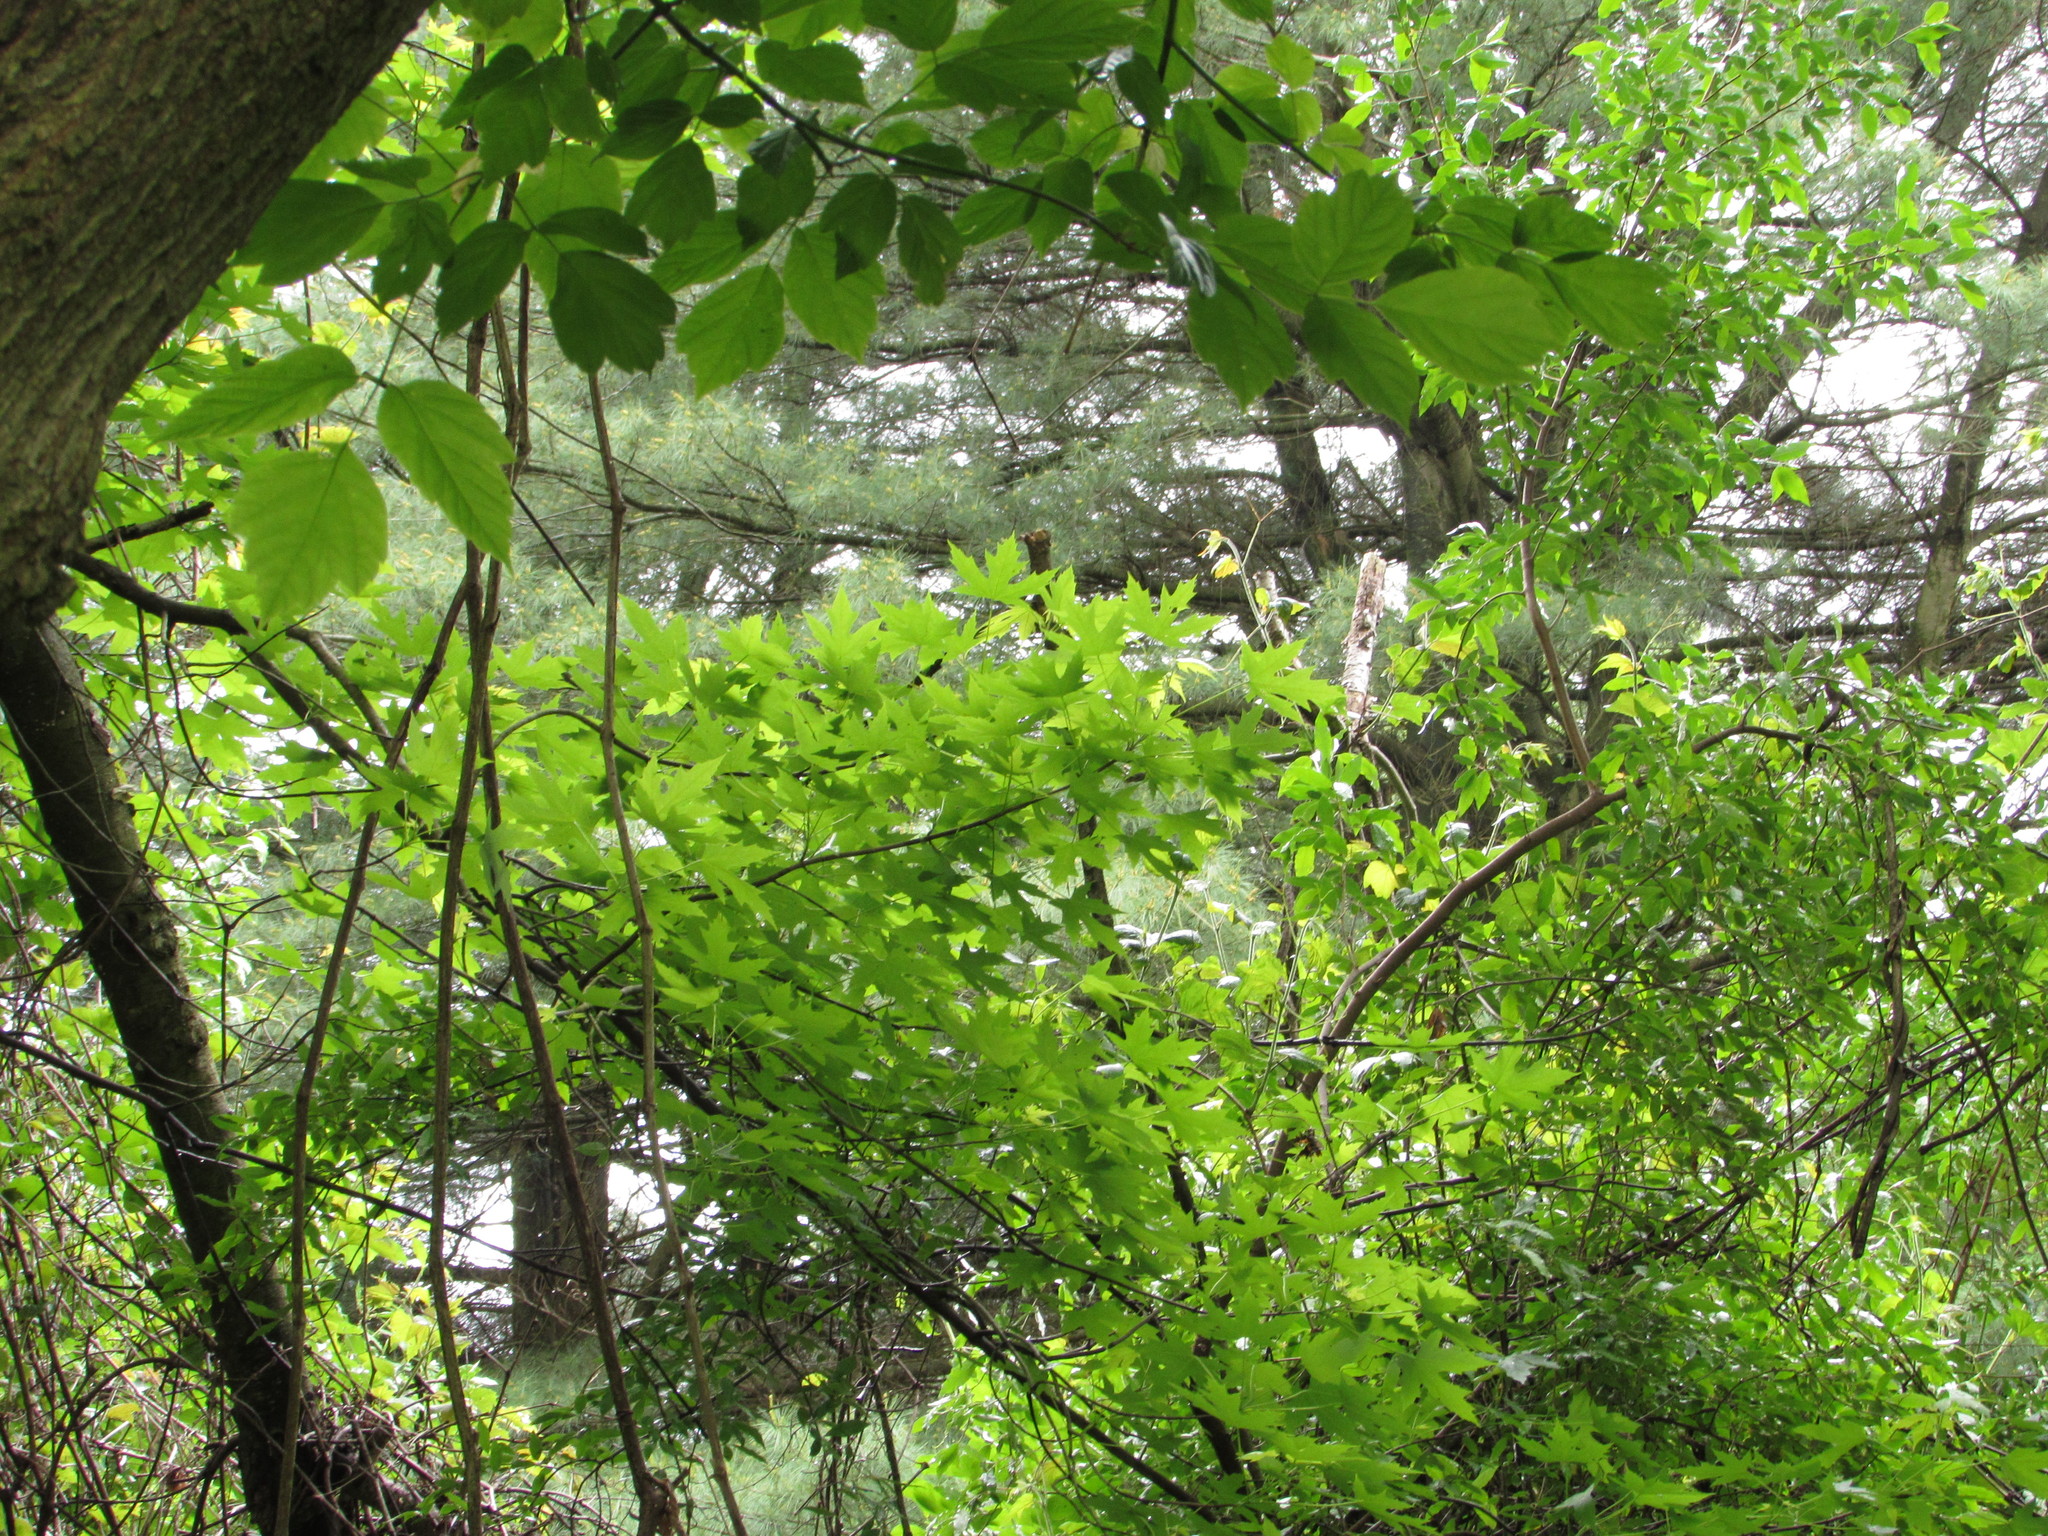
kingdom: Plantae
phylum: Tracheophyta
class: Magnoliopsida
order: Sapindales
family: Sapindaceae
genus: Acer
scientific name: Acer saccharinum
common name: Silver maple
